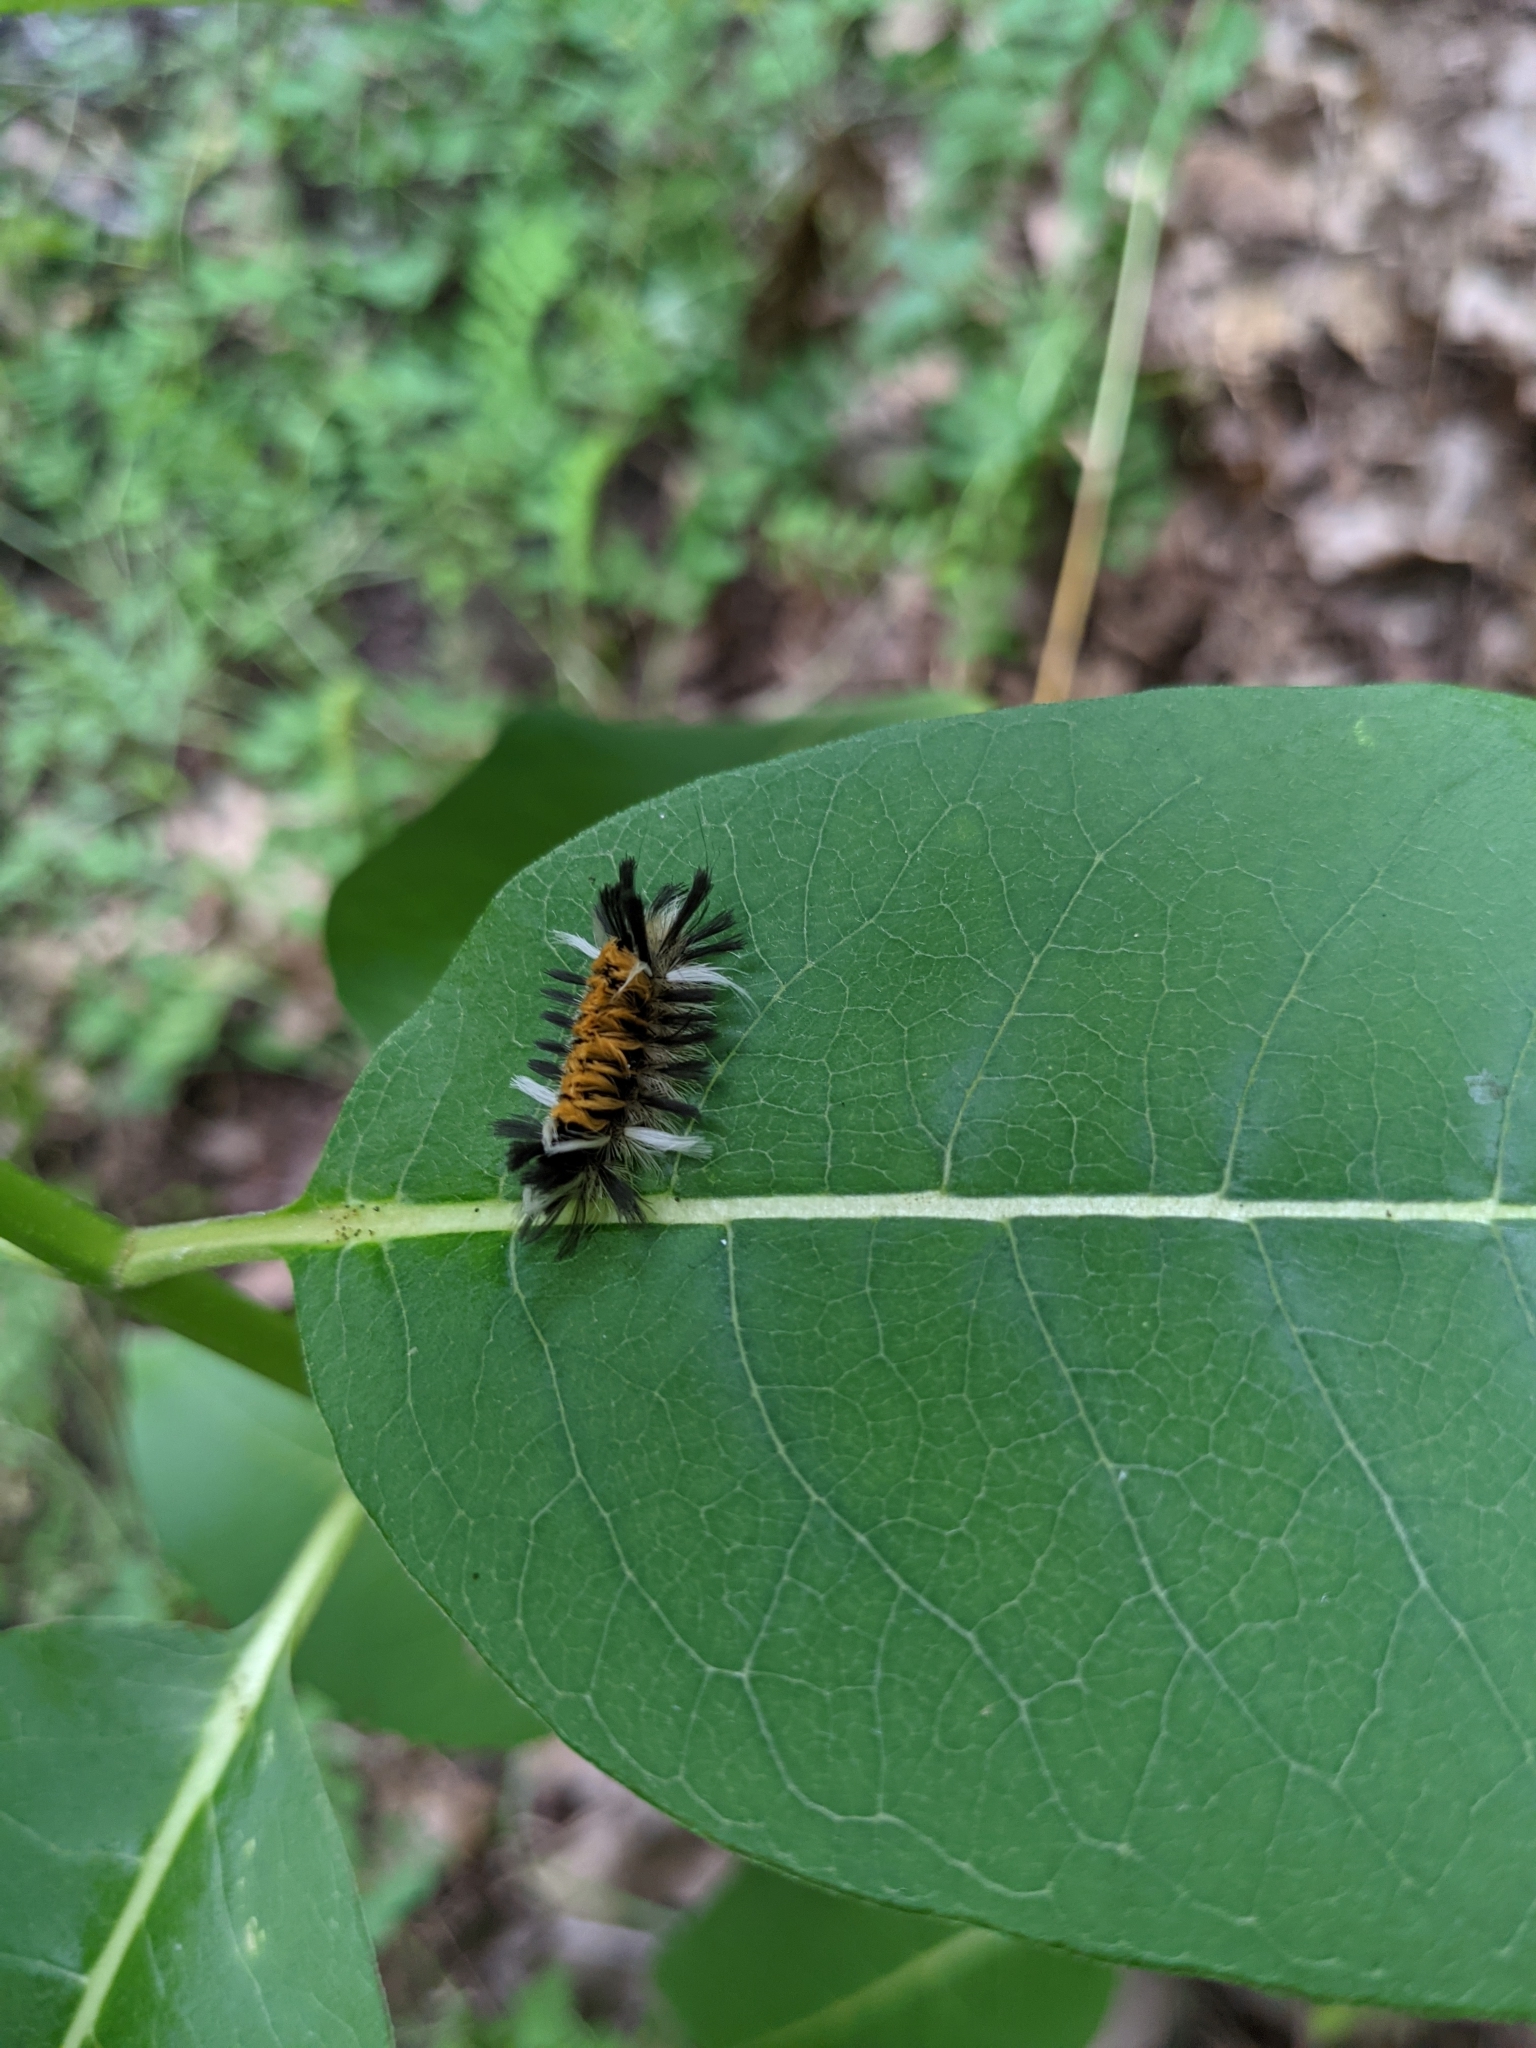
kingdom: Animalia
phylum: Arthropoda
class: Insecta
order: Lepidoptera
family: Erebidae
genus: Euchaetes
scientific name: Euchaetes egle
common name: Milkweed tussock moth
